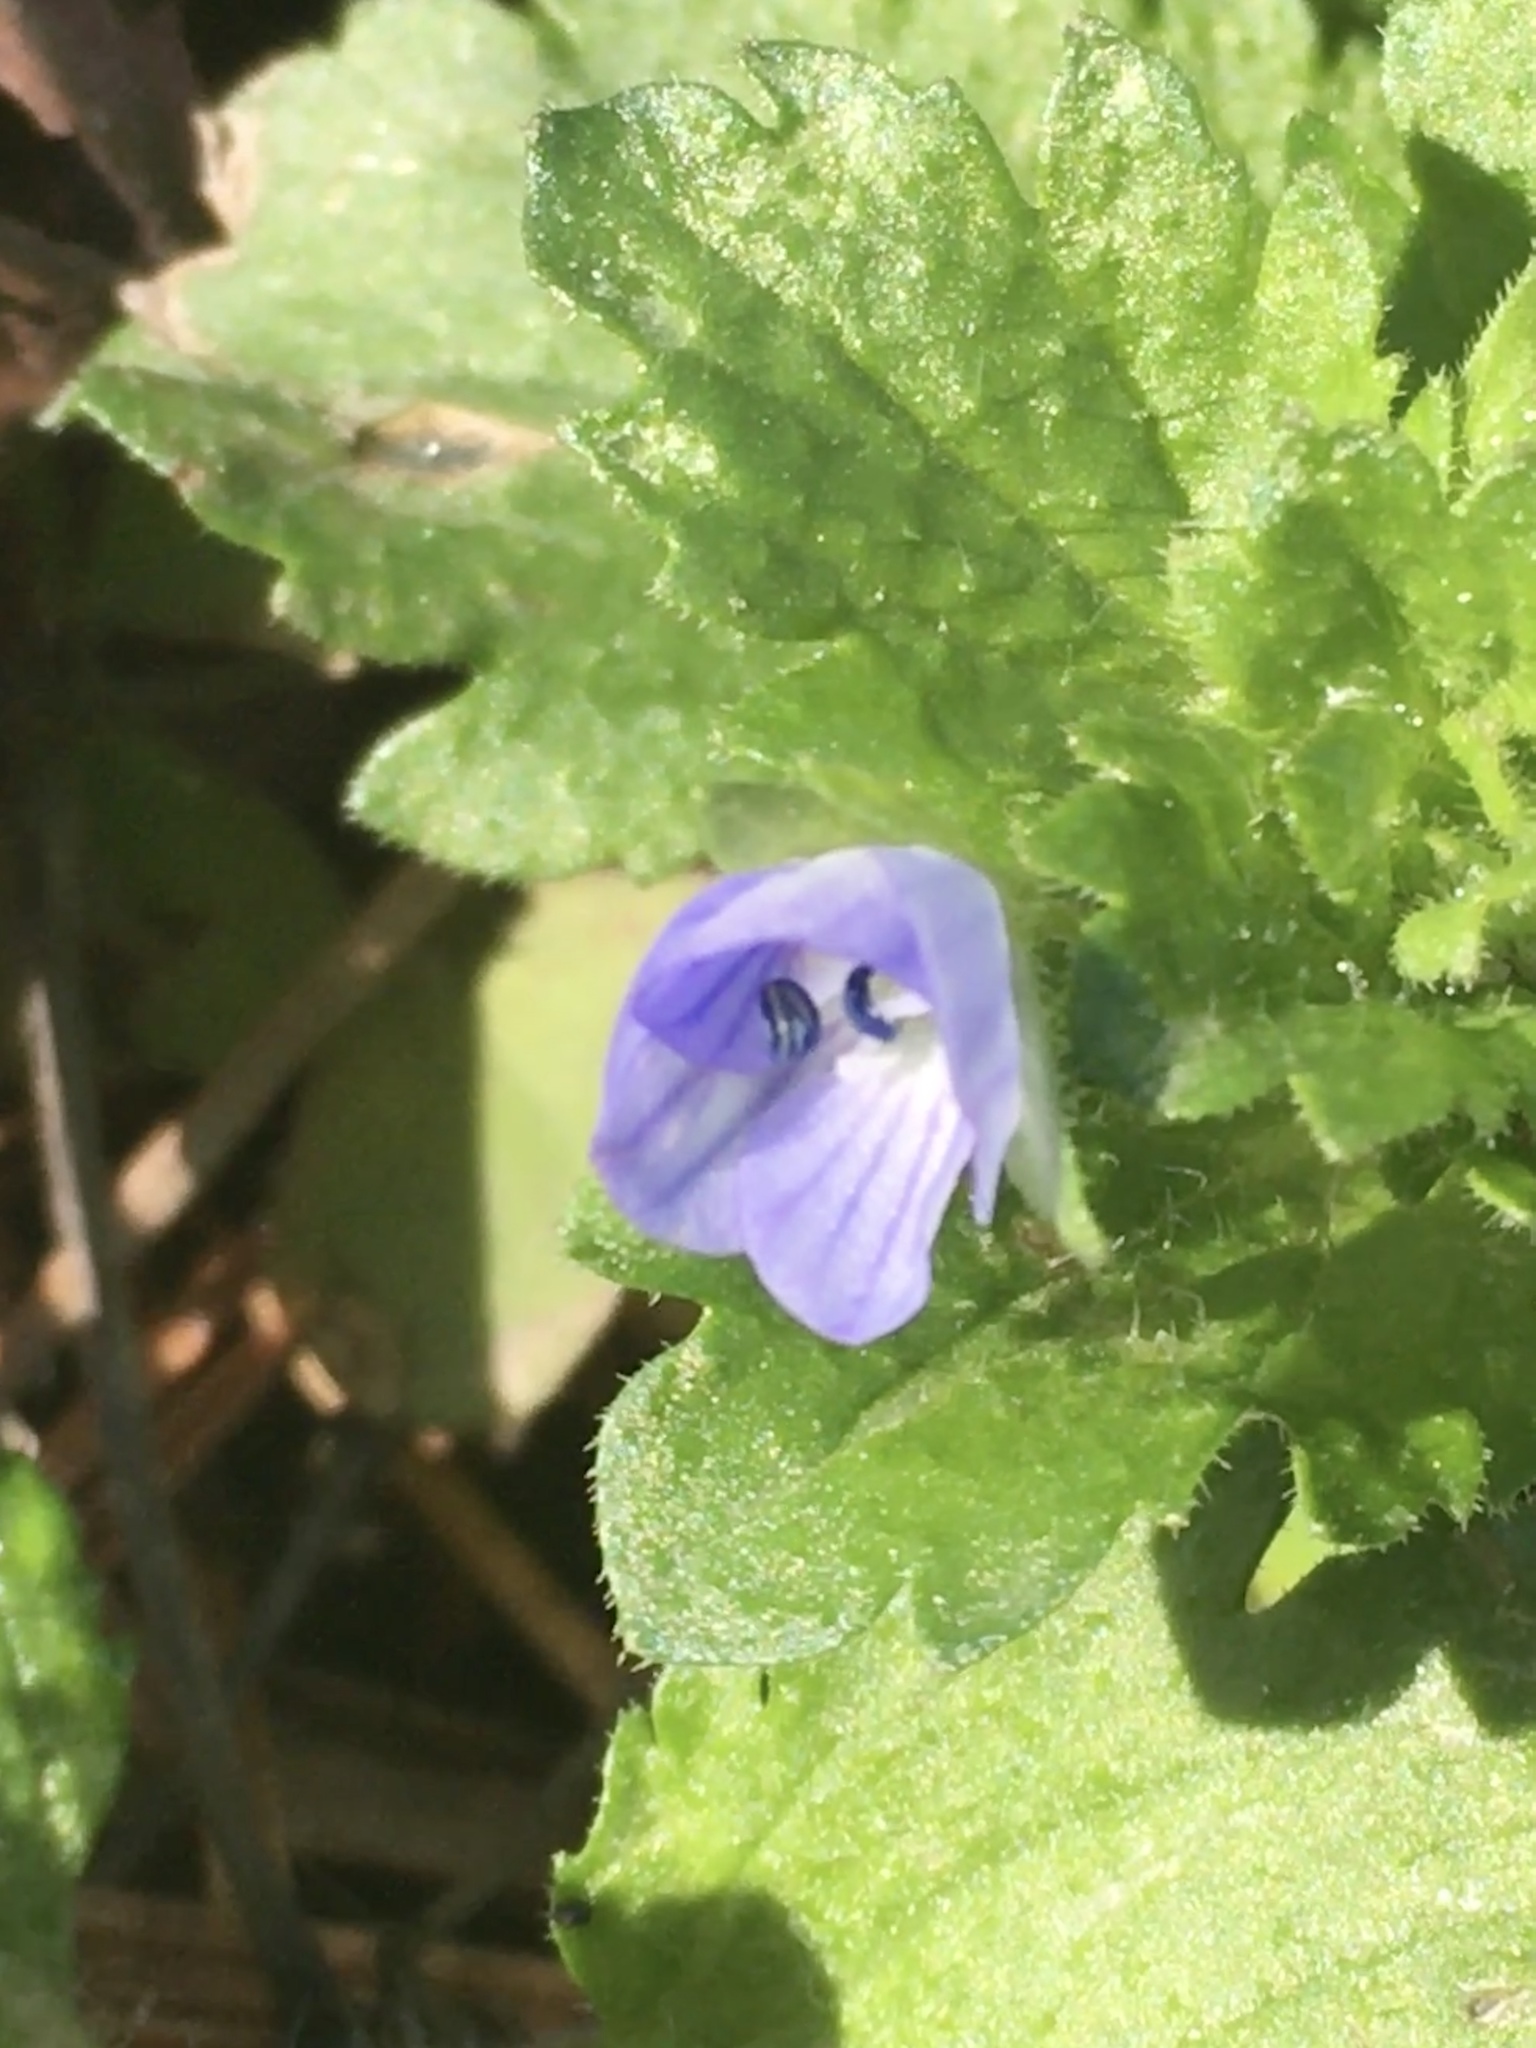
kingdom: Plantae
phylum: Tracheophyta
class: Magnoliopsida
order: Lamiales
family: Plantaginaceae
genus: Veronica
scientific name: Veronica persica
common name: Common field-speedwell
